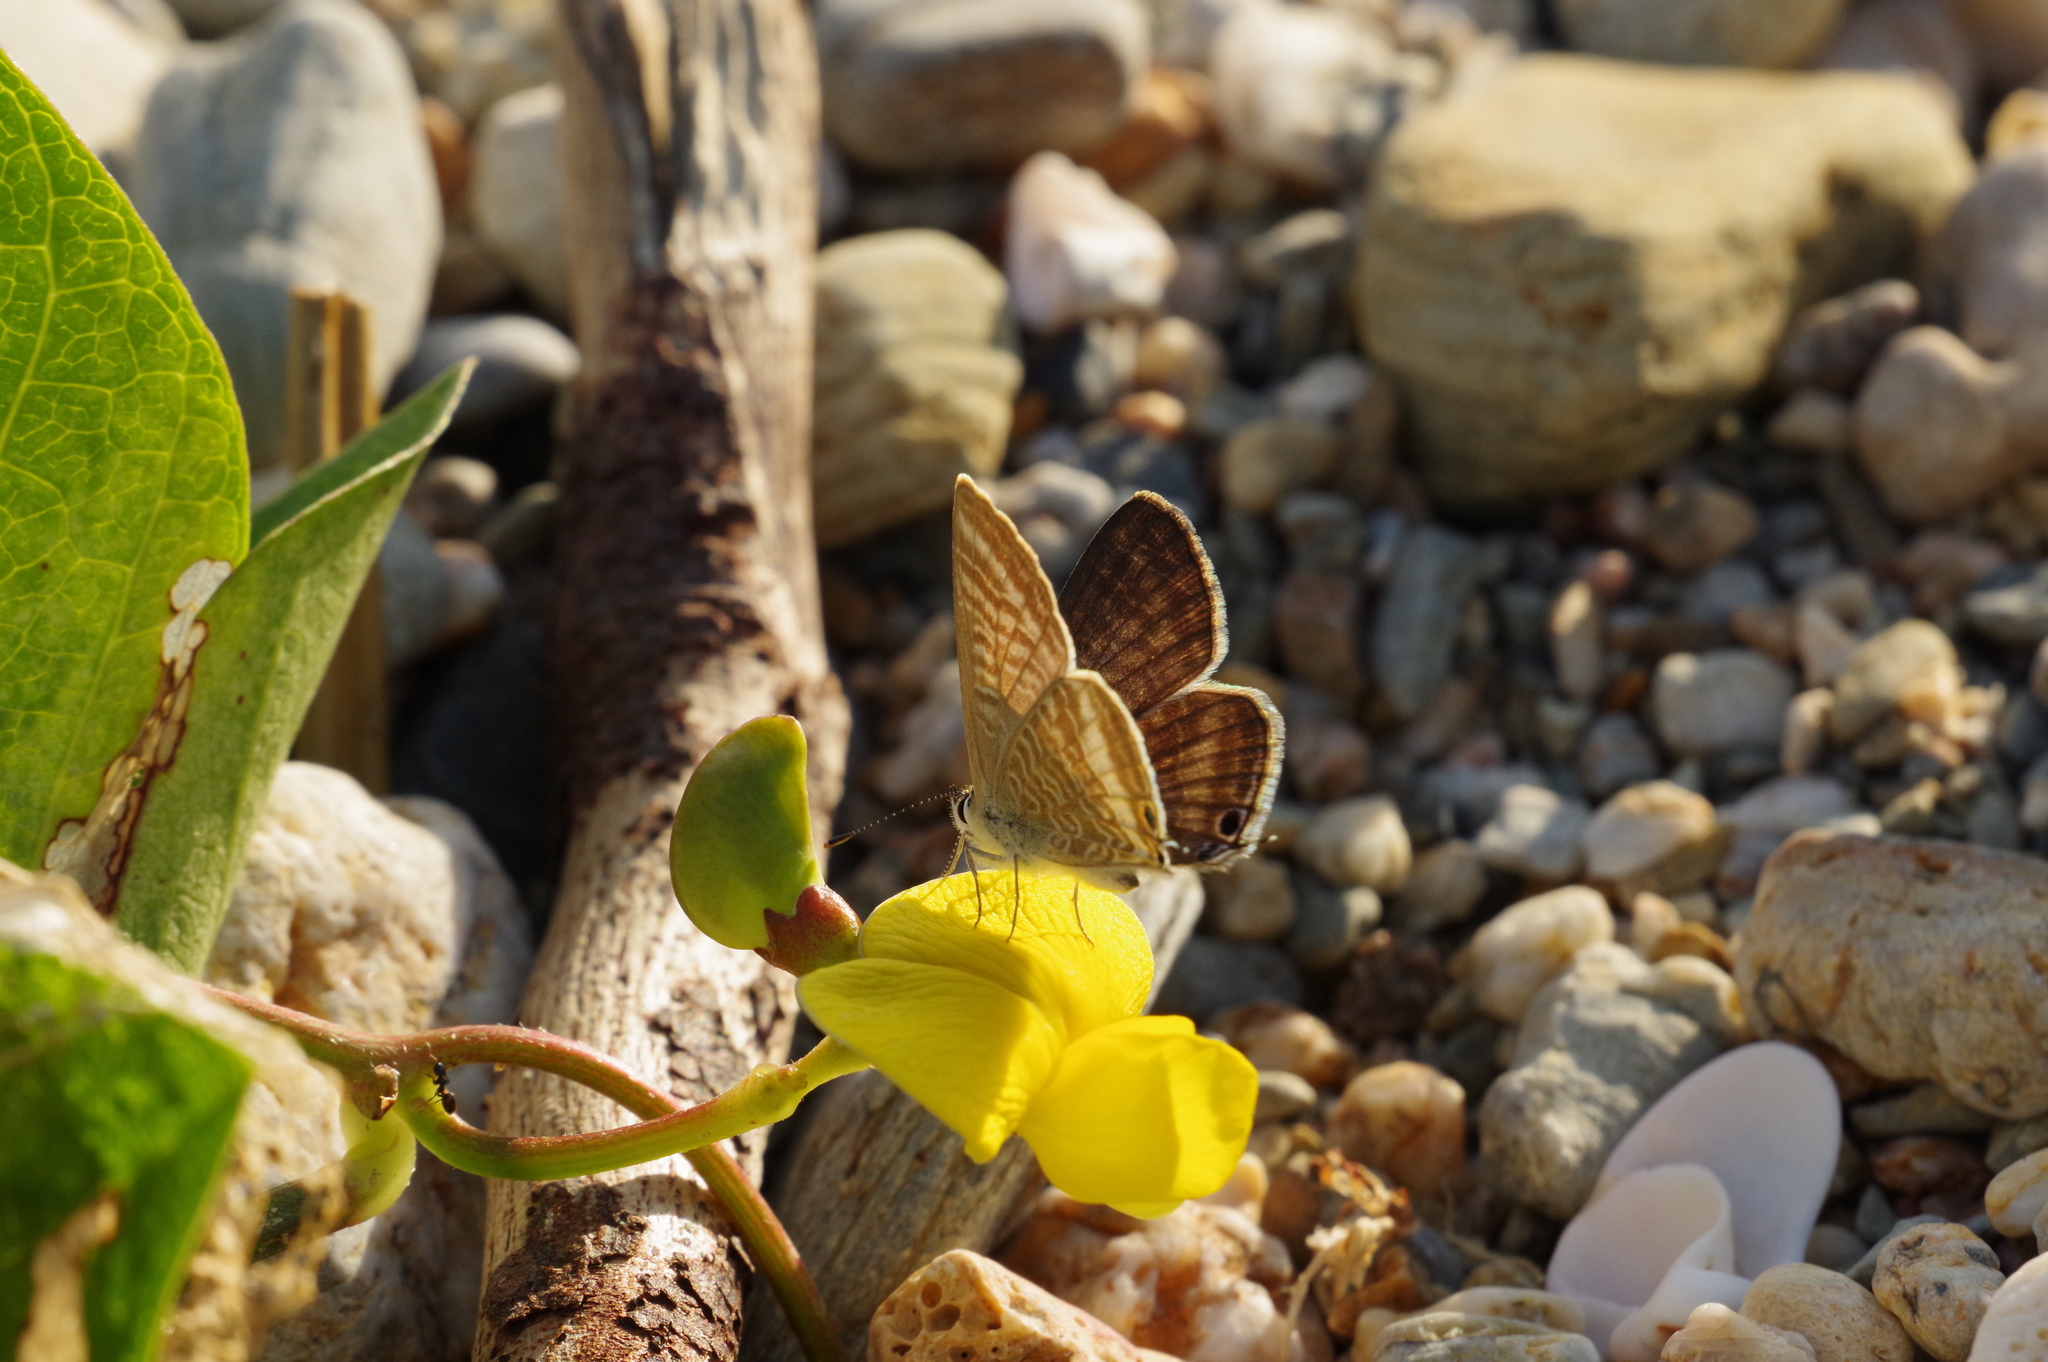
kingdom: Animalia
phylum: Arthropoda
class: Insecta
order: Lepidoptera
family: Lycaenidae
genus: Lampides
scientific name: Lampides boeticus
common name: Long-tailed blue
